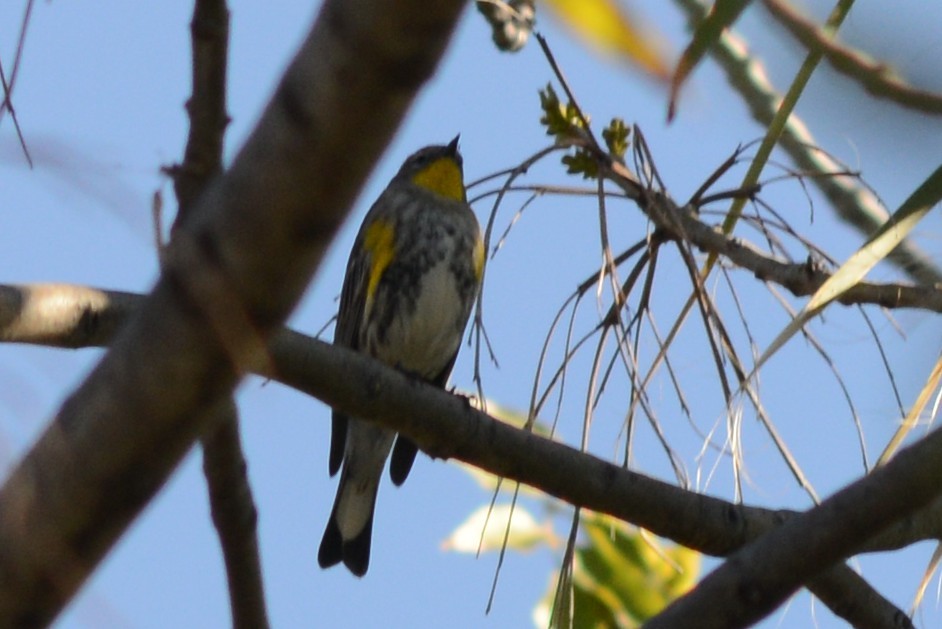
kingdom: Animalia
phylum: Chordata
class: Aves
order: Passeriformes
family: Parulidae
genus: Setophaga
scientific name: Setophaga auduboni
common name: Audubon's warbler
